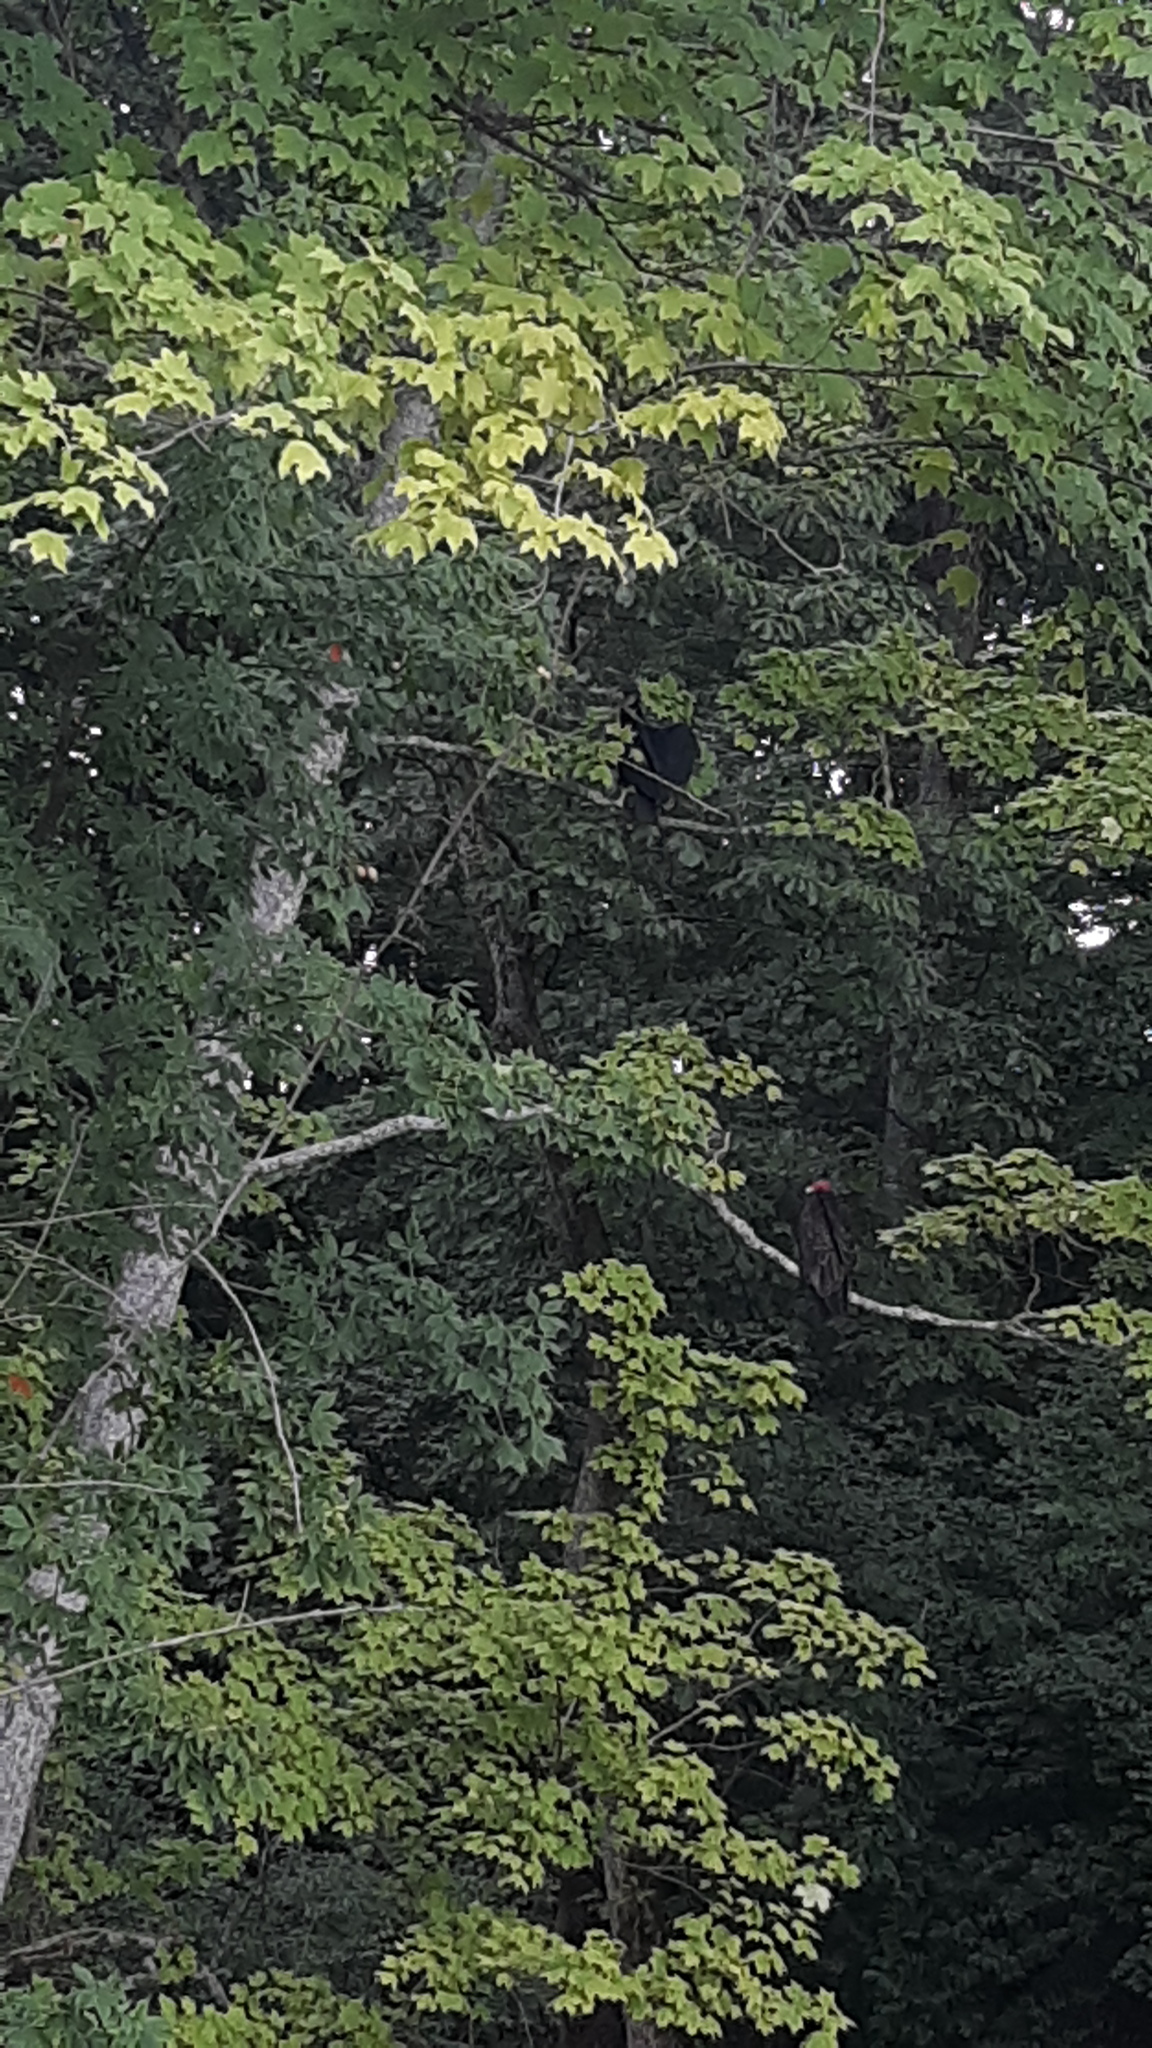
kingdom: Animalia
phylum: Chordata
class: Aves
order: Accipitriformes
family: Cathartidae
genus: Cathartes
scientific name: Cathartes aura
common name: Turkey vulture
